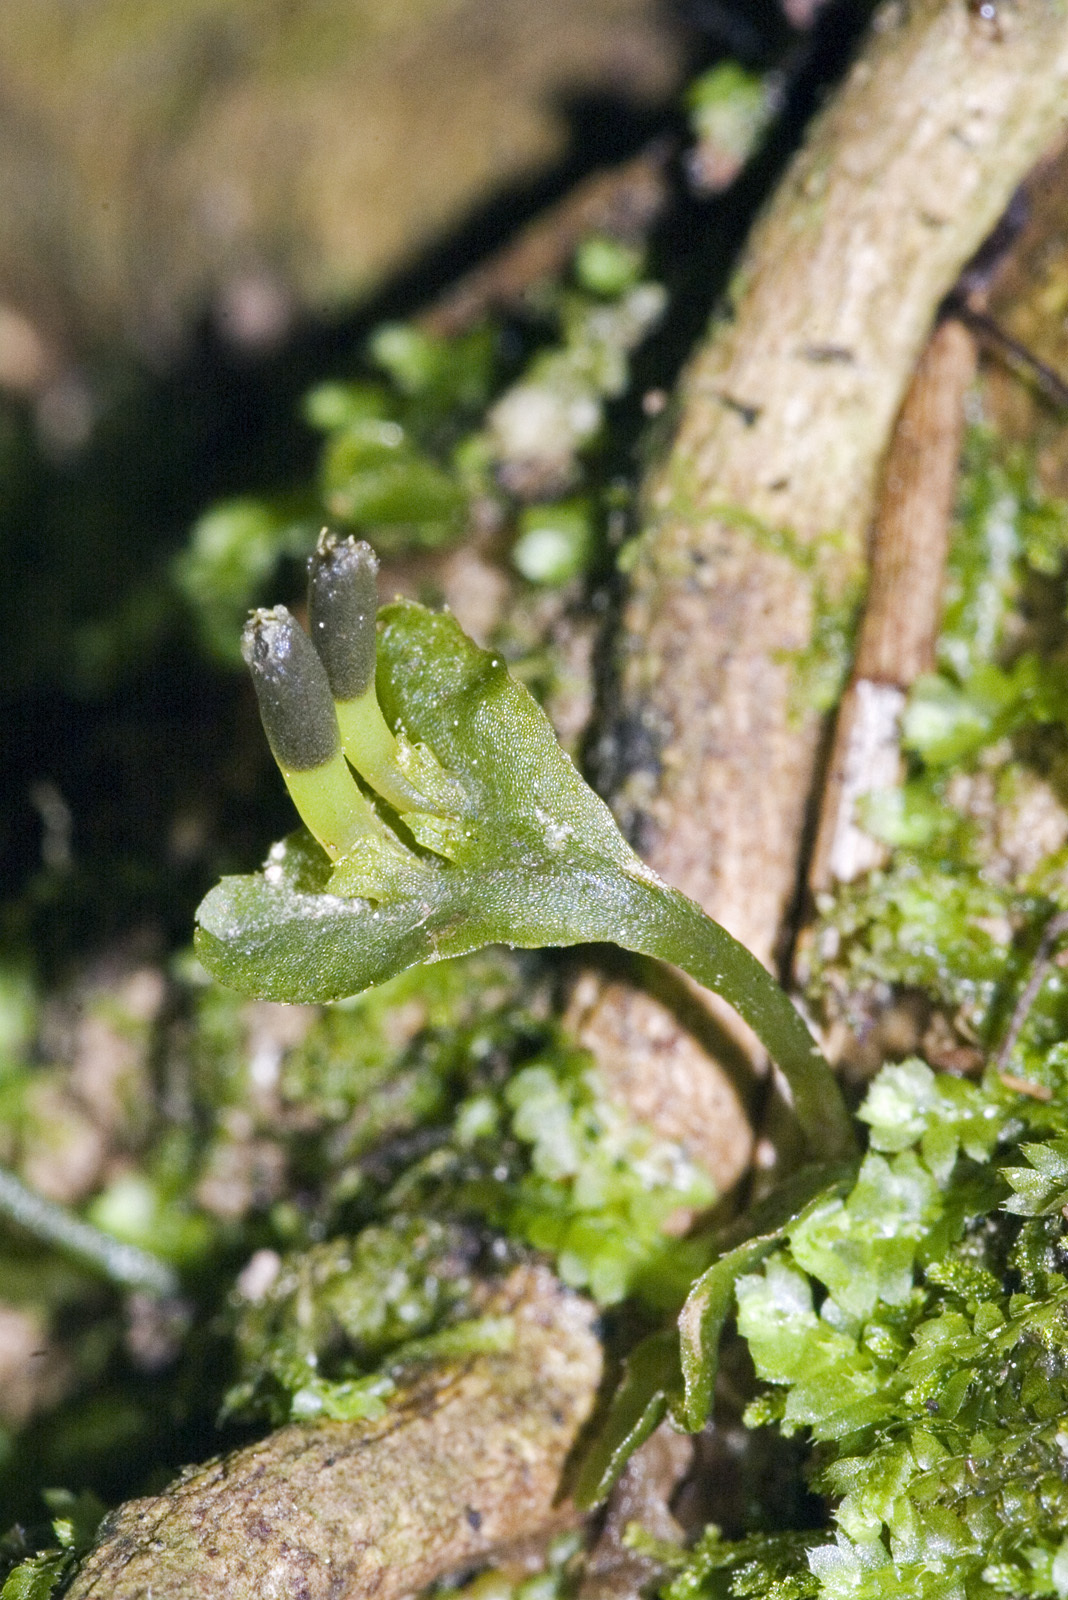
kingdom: Plantae
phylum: Marchantiophyta
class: Jungermanniopsida
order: Pallaviciniales
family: Pallaviciniaceae
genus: Symphyogyna
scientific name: Symphyogyna hymenophyllum
